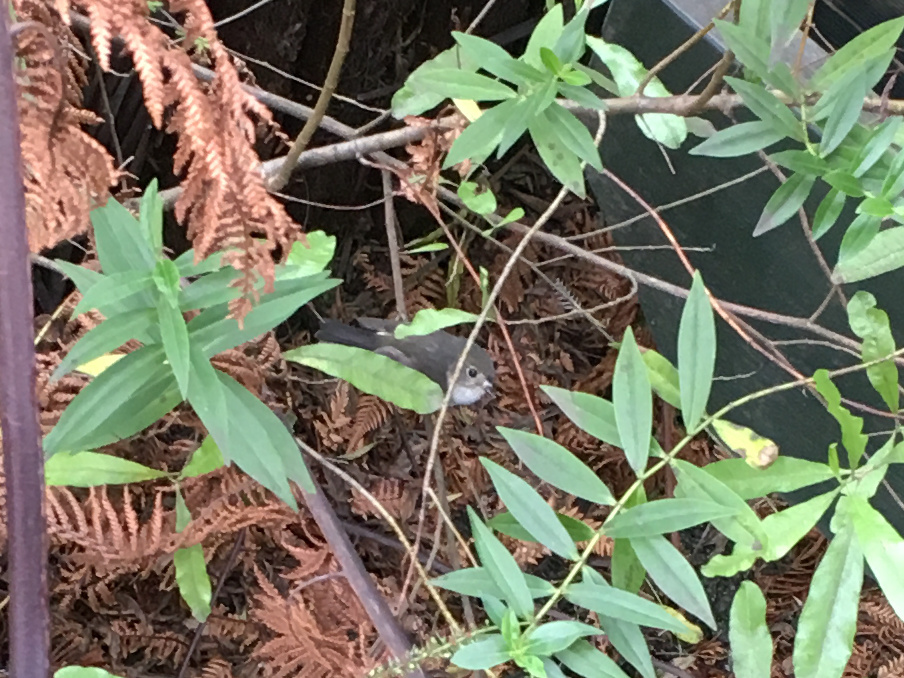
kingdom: Animalia
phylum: Chordata
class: Aves
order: Passeriformes
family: Petroicidae
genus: Petroica
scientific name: Petroica macrocephala
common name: Tomtit
